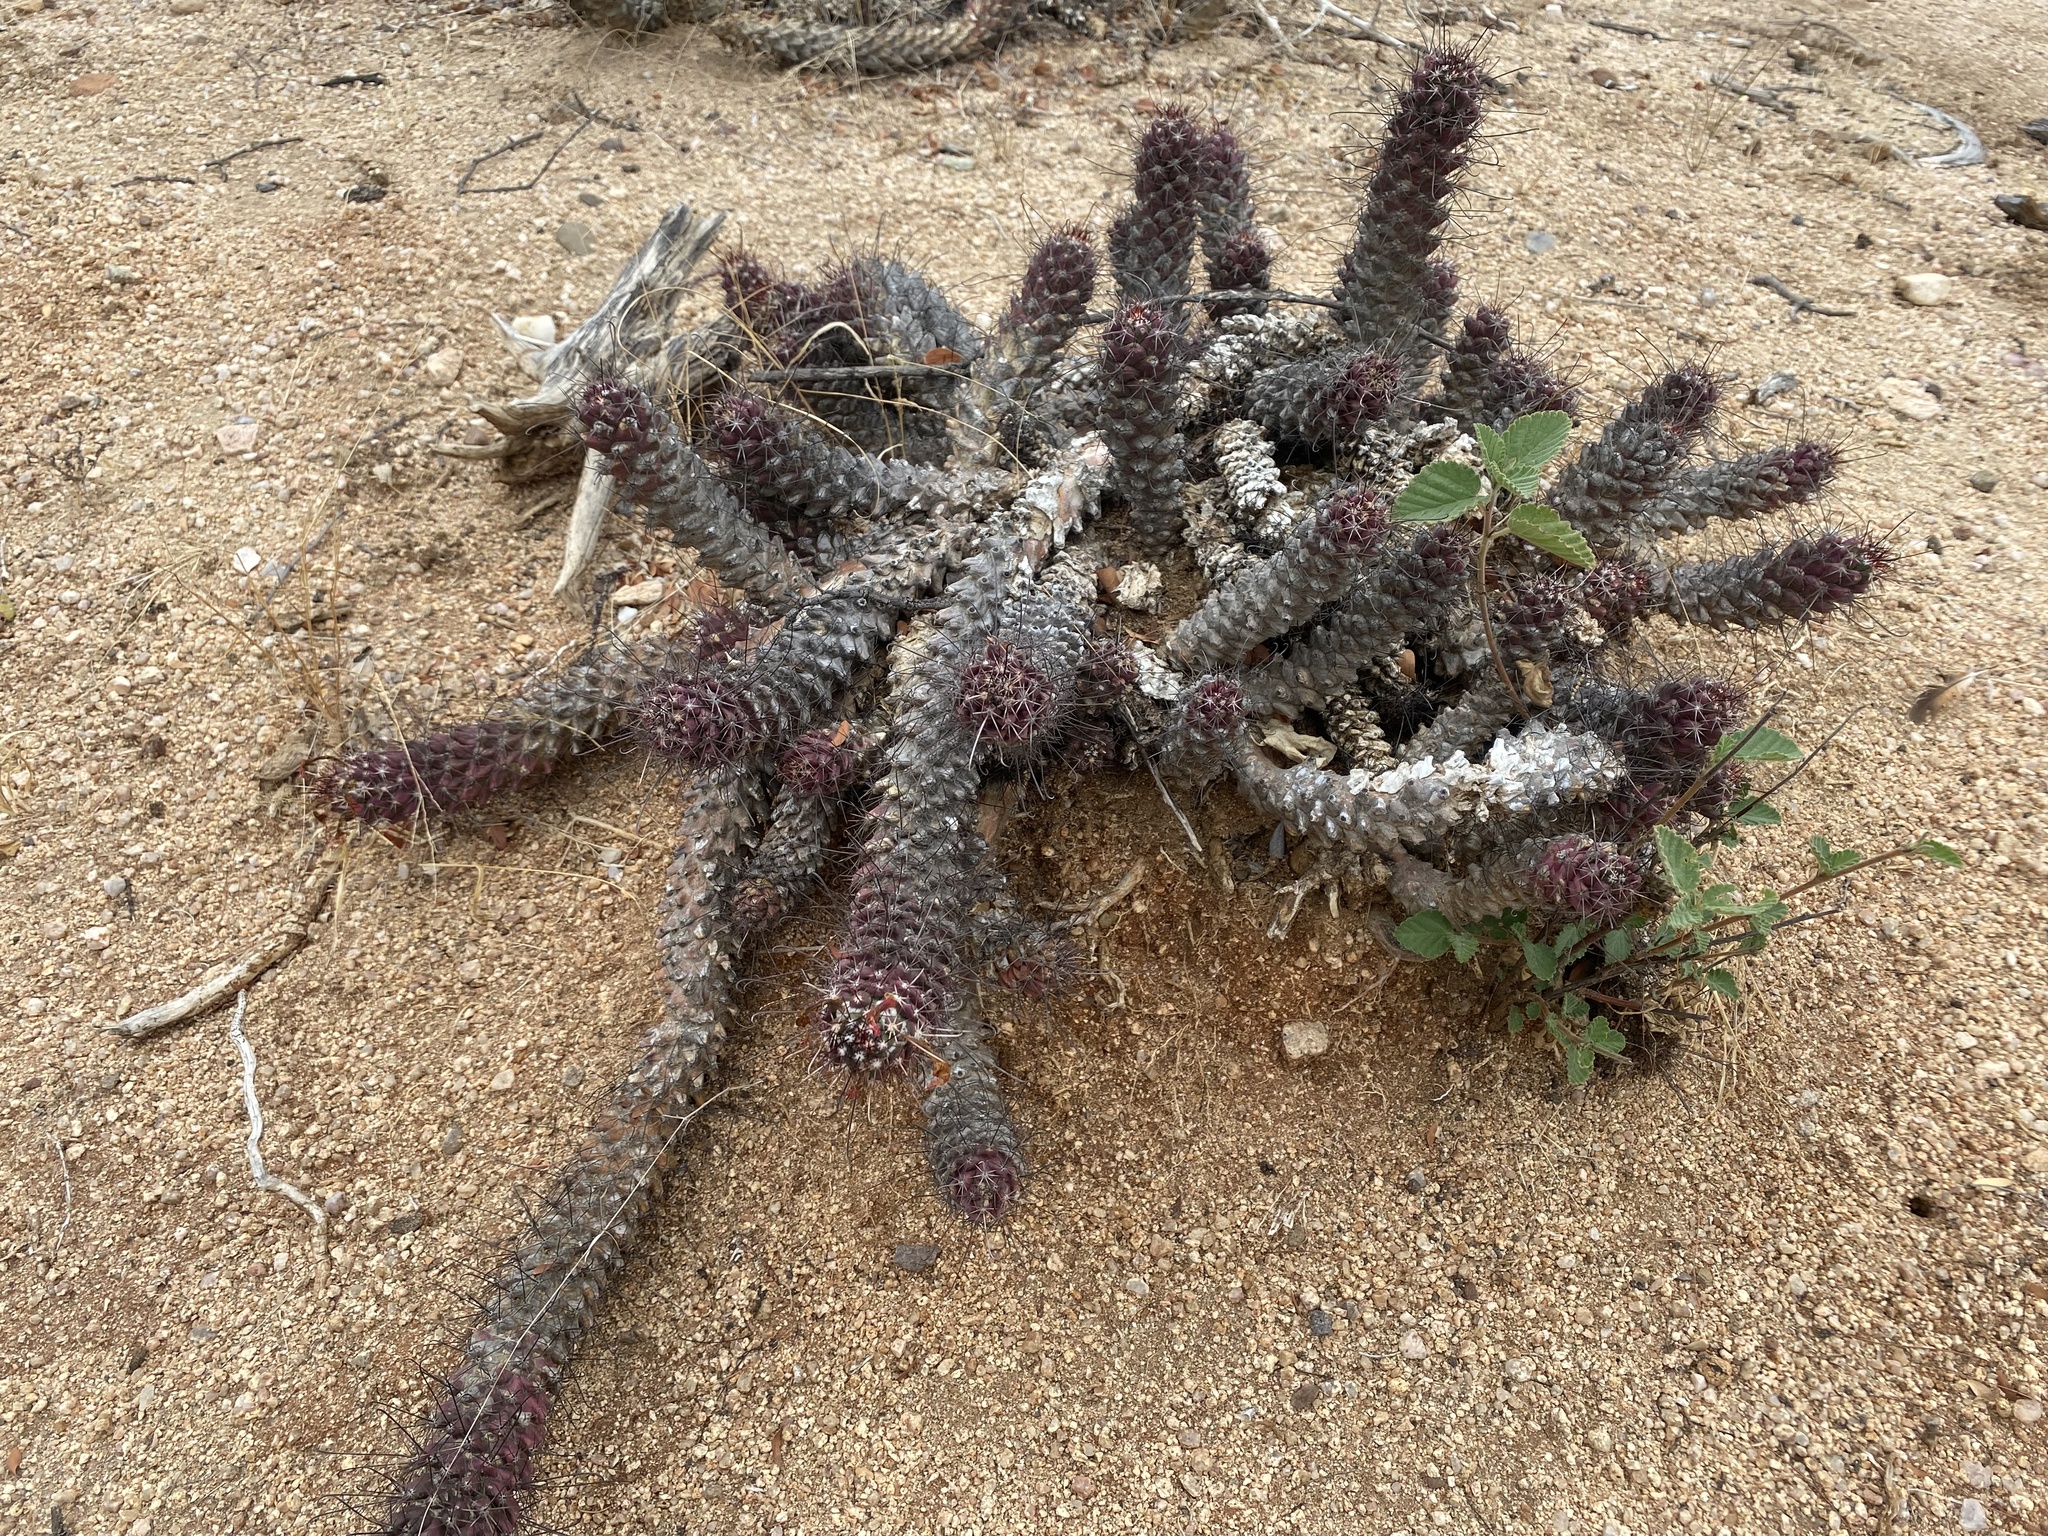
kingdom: Plantae
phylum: Tracheophyta
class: Magnoliopsida
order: Caryophyllales
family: Cactaceae
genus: Cochemiea
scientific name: Cochemiea poselgeri
